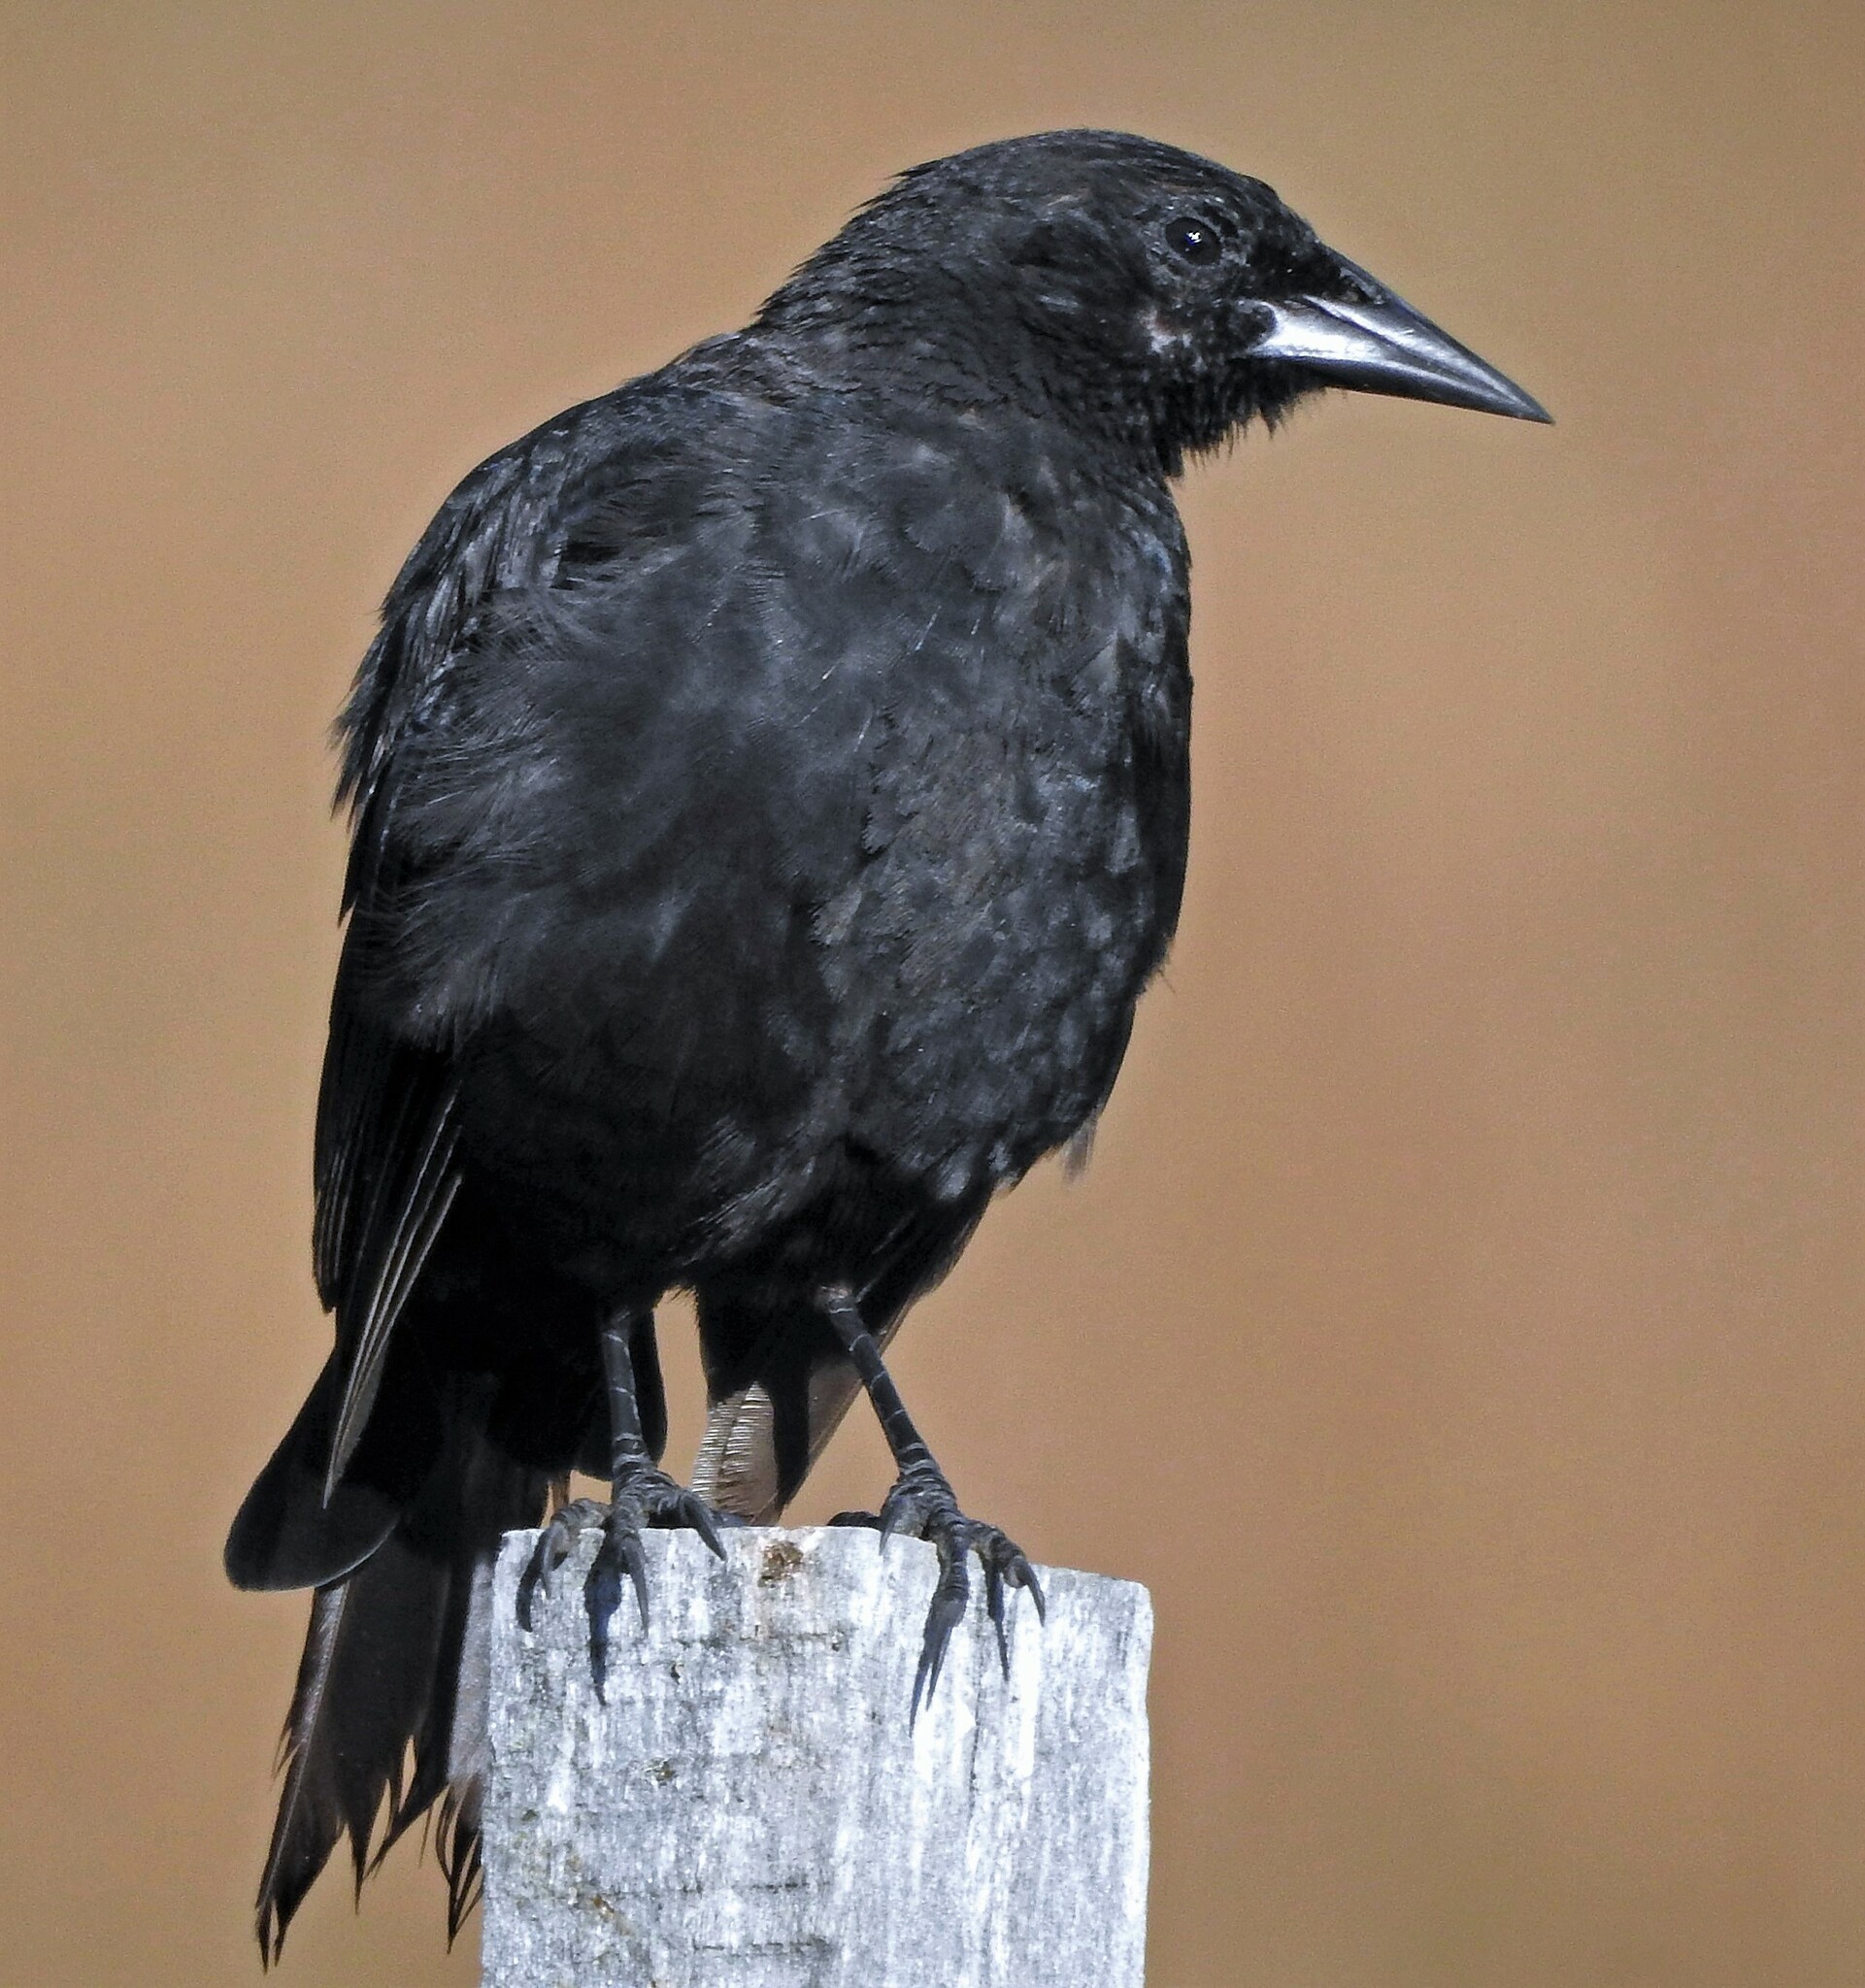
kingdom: Animalia
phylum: Chordata
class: Aves
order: Passeriformes
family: Icteridae
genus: Curaeus
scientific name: Curaeus curaeus
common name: Austral blackbird
